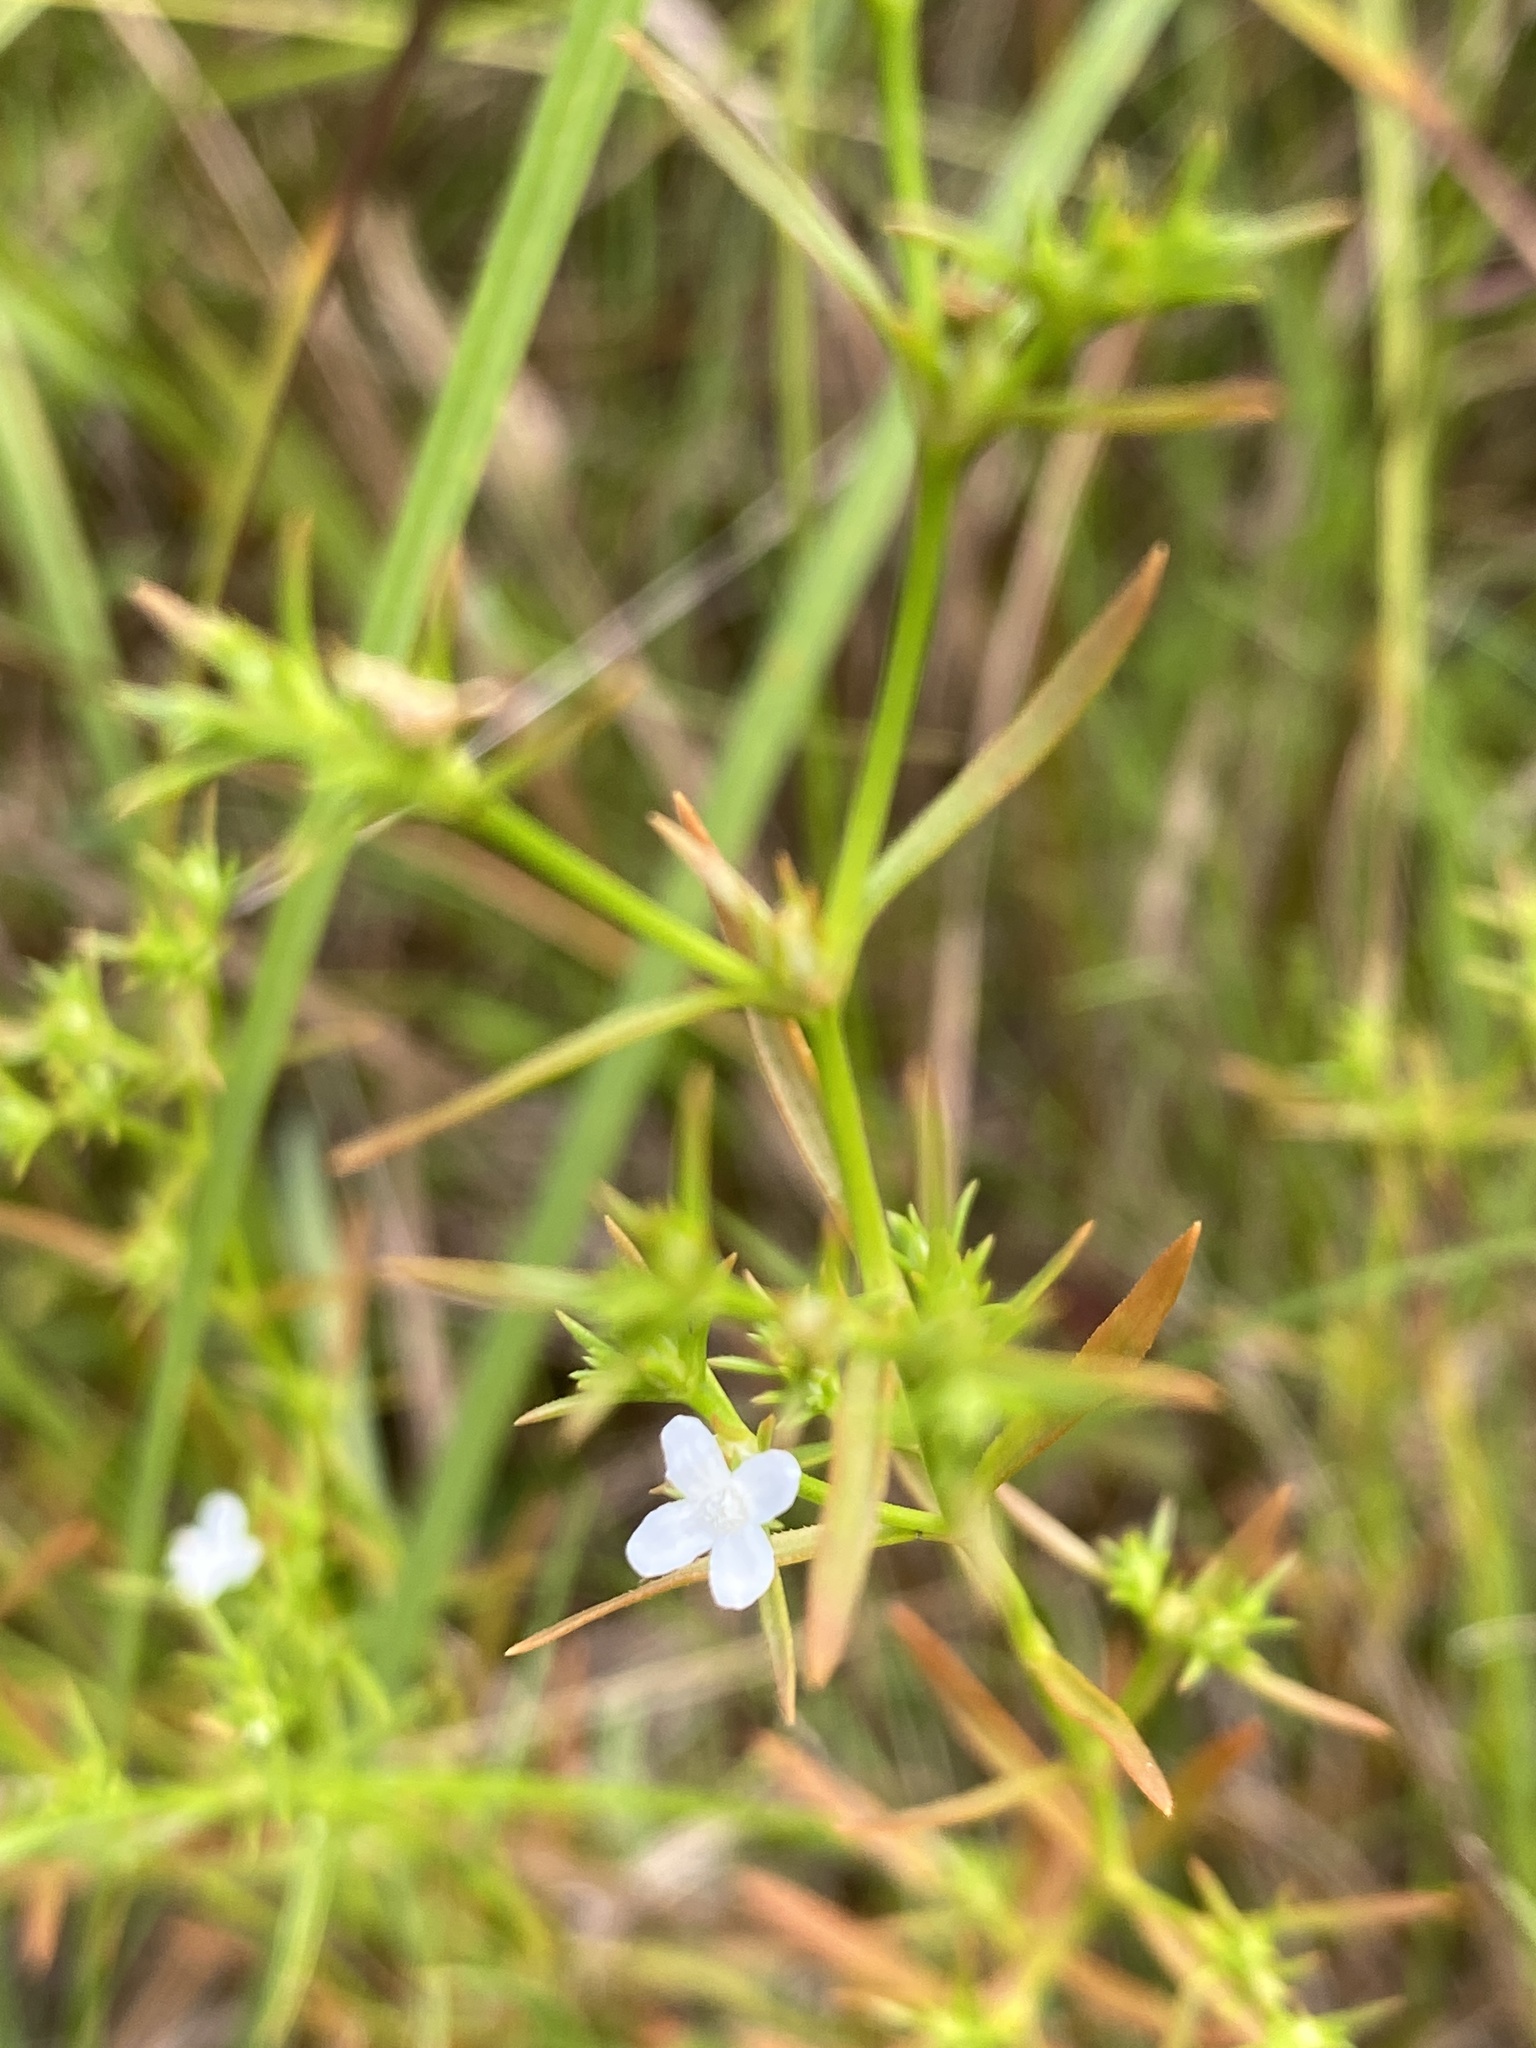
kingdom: Plantae
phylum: Tracheophyta
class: Magnoliopsida
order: Lamiales
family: Tetrachondraceae
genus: Polypremum
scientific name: Polypremum procumbens
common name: Juniper-leaf
